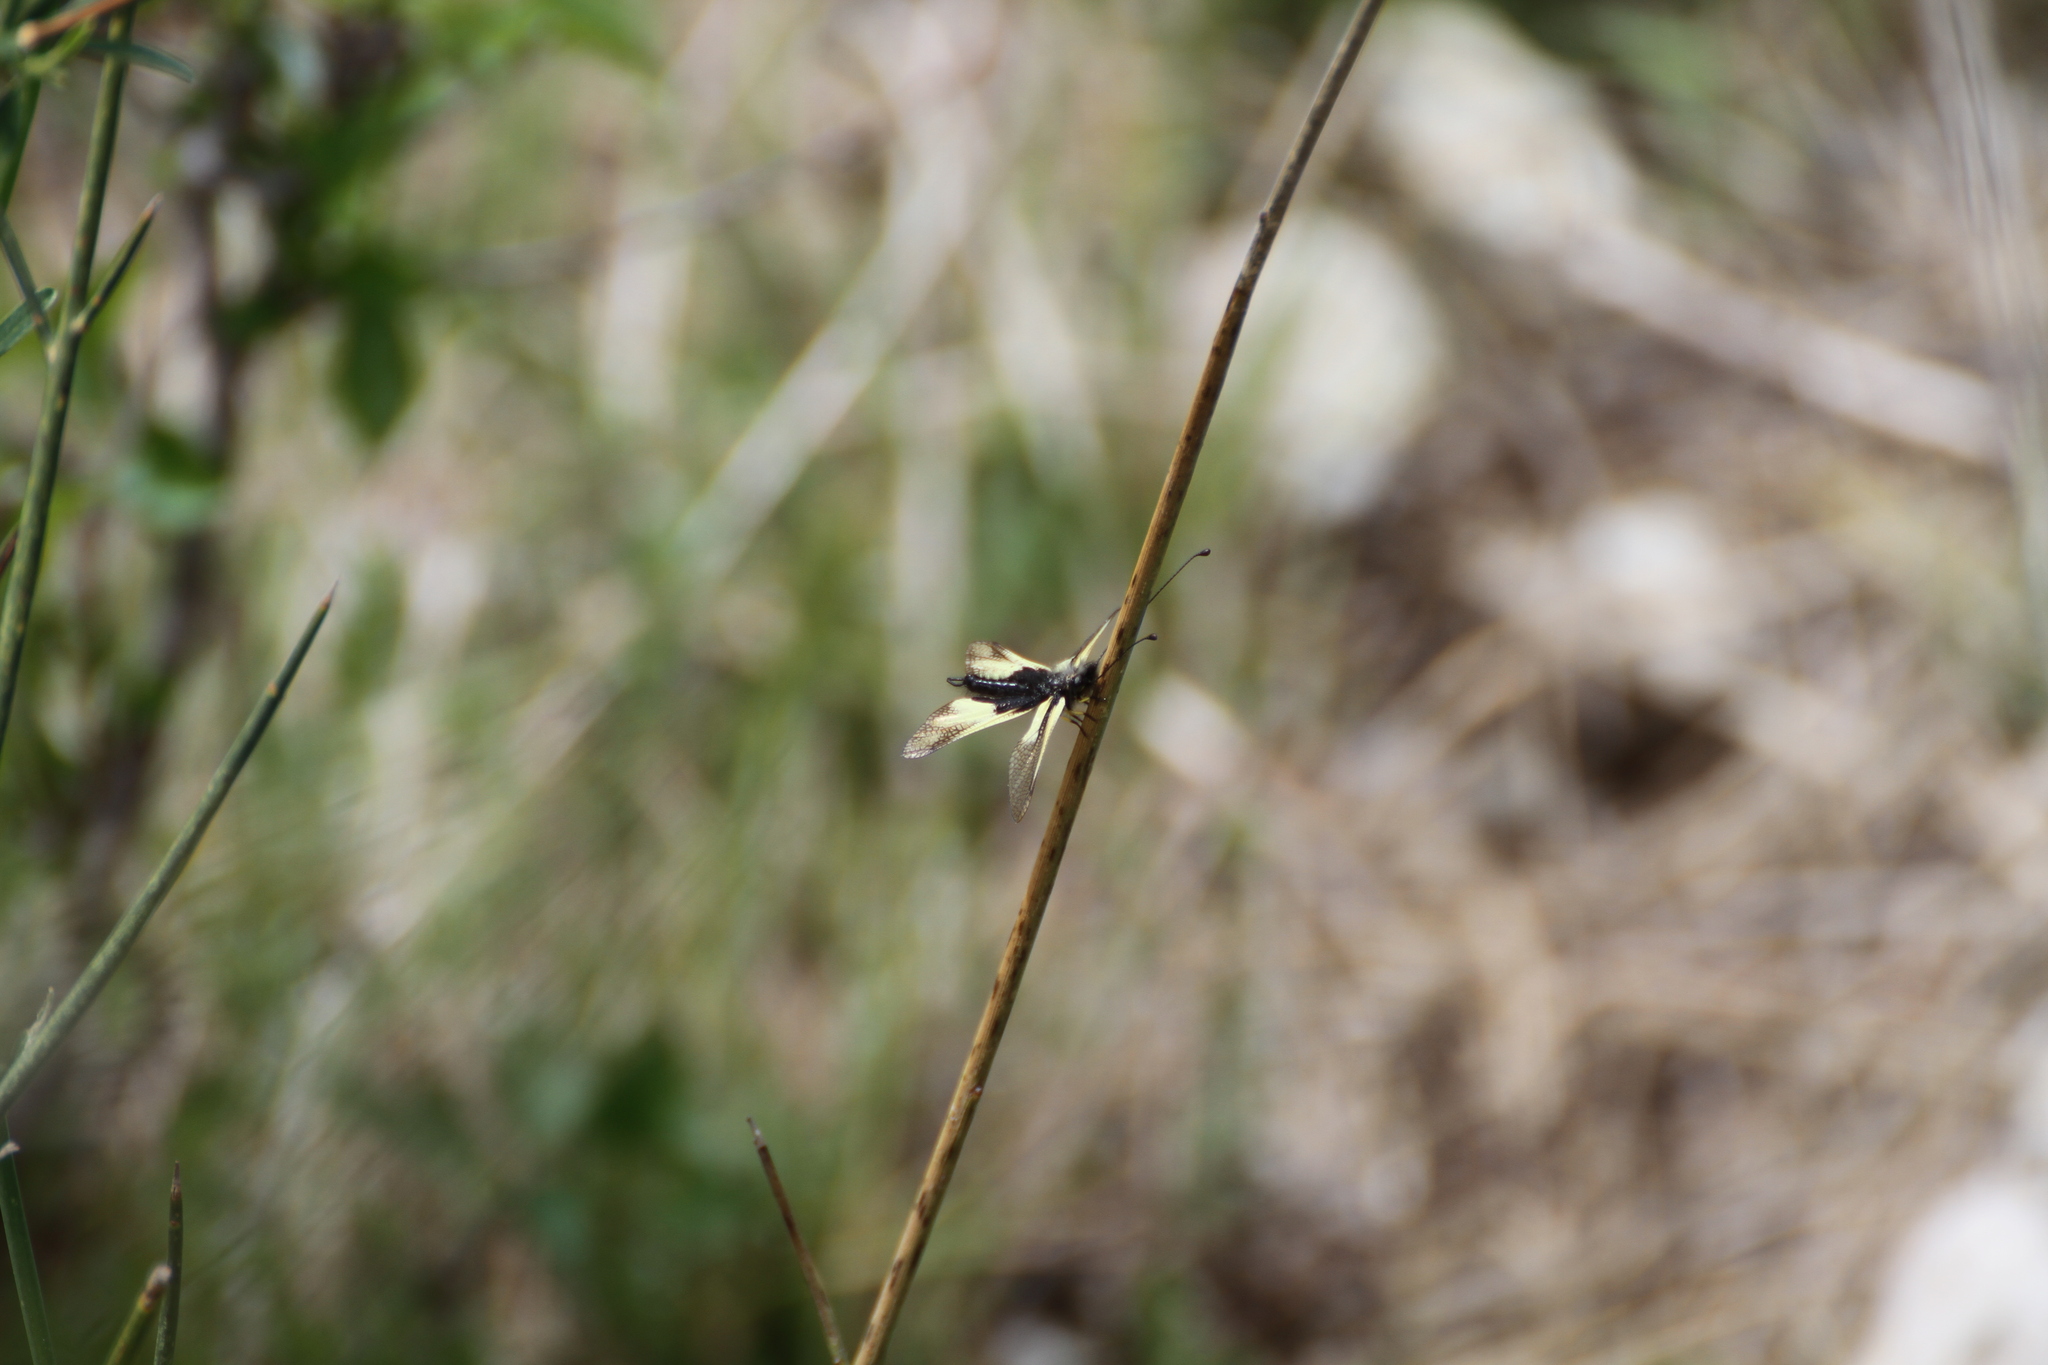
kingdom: Animalia
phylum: Arthropoda
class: Insecta
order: Neuroptera
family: Ascalaphidae
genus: Libelloides
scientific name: Libelloides coccajus
